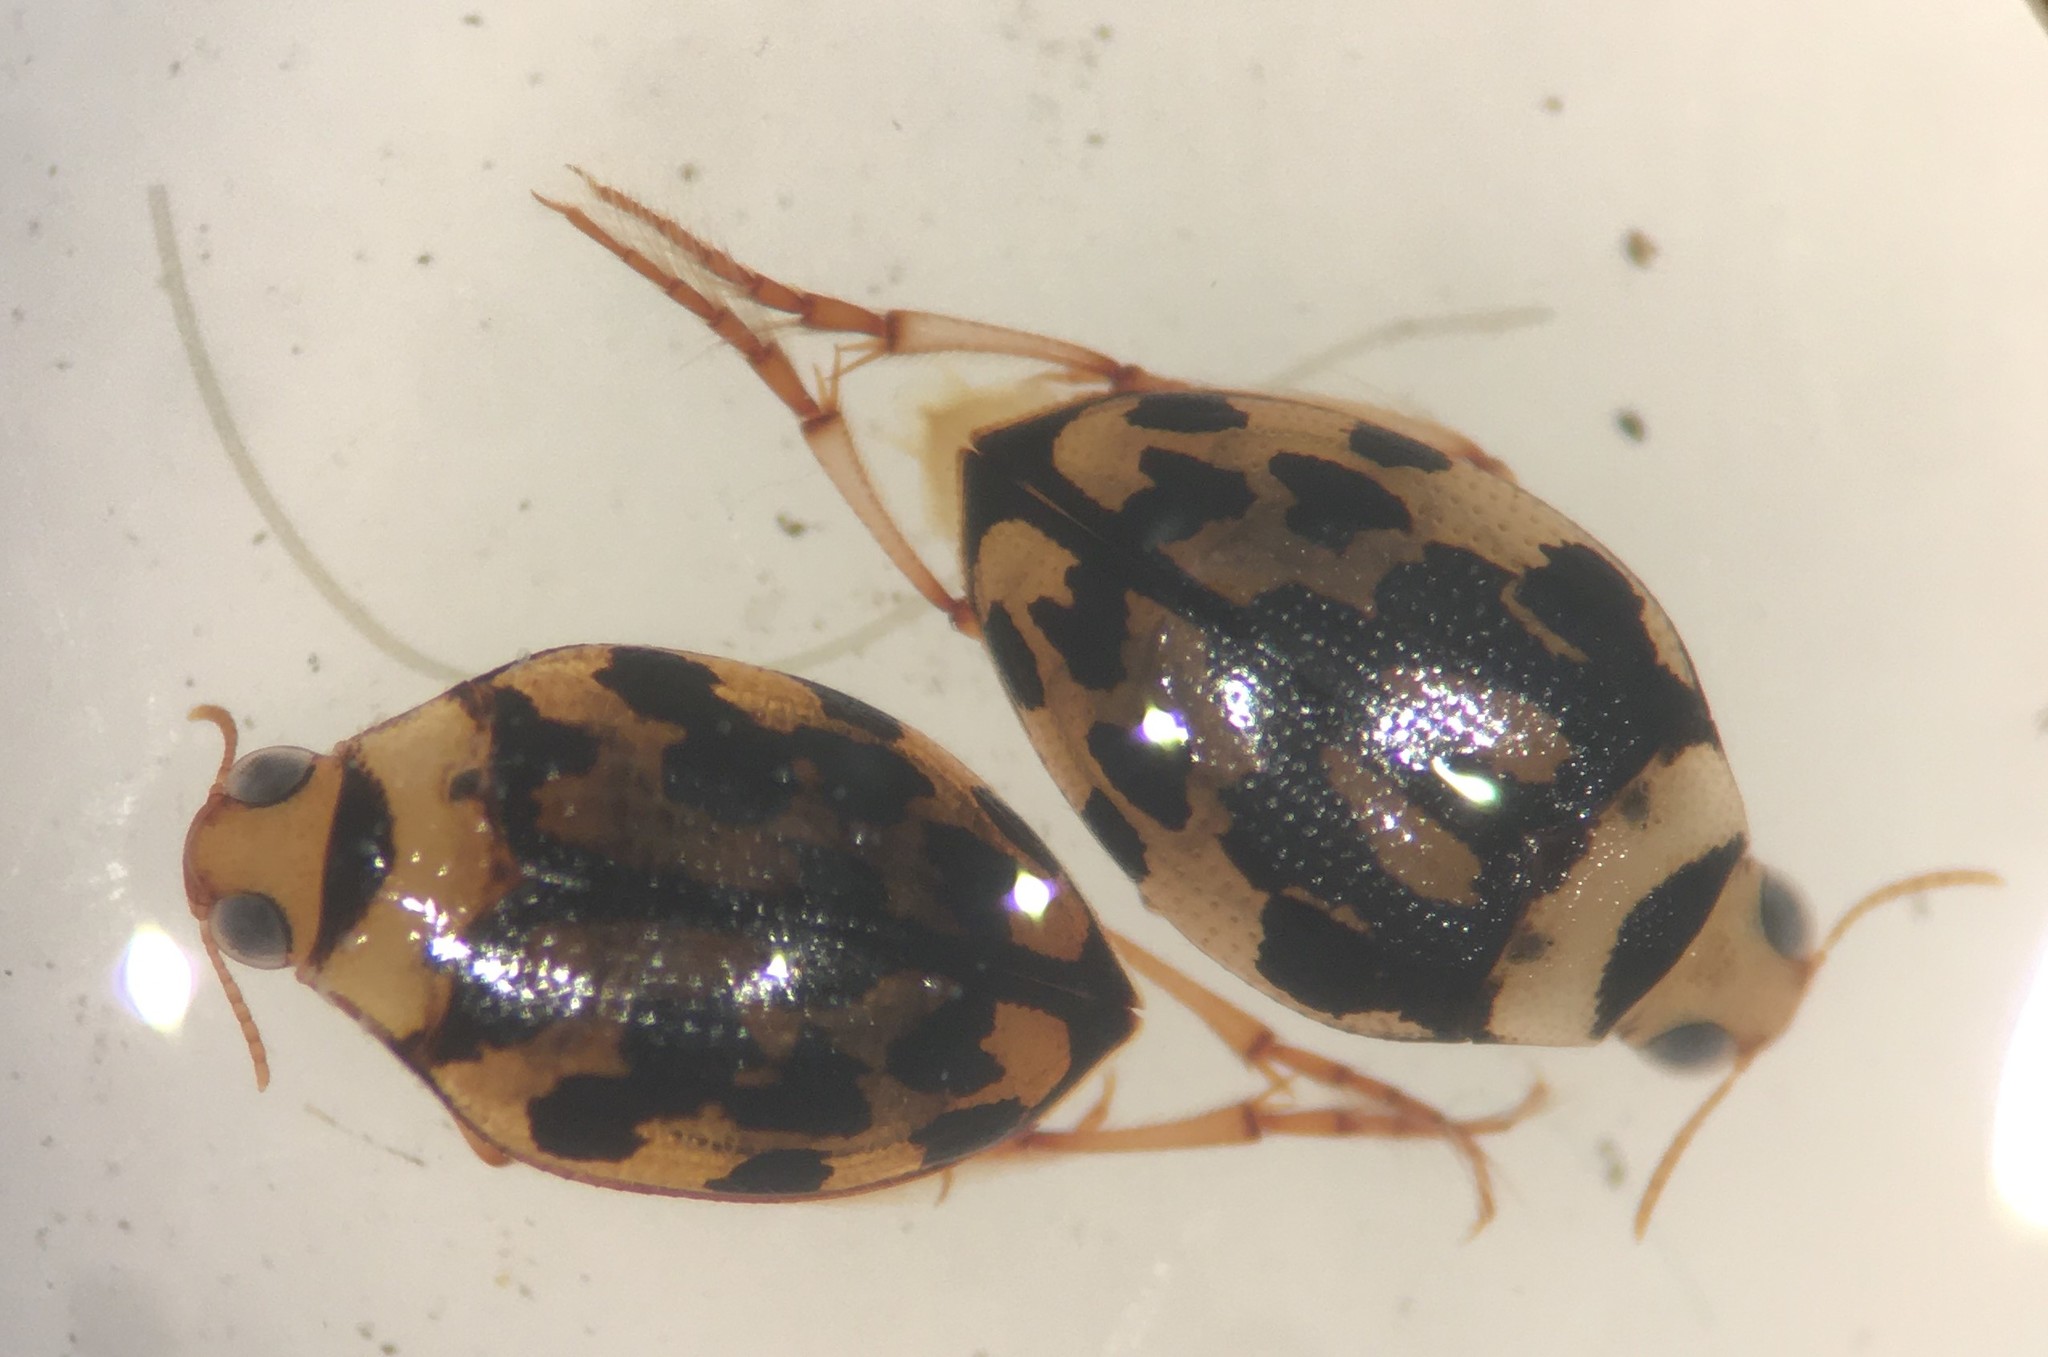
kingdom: Animalia
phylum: Arthropoda
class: Insecta
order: Coleoptera
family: Haliplidae
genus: Haliplus
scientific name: Haliplus pantherinus
